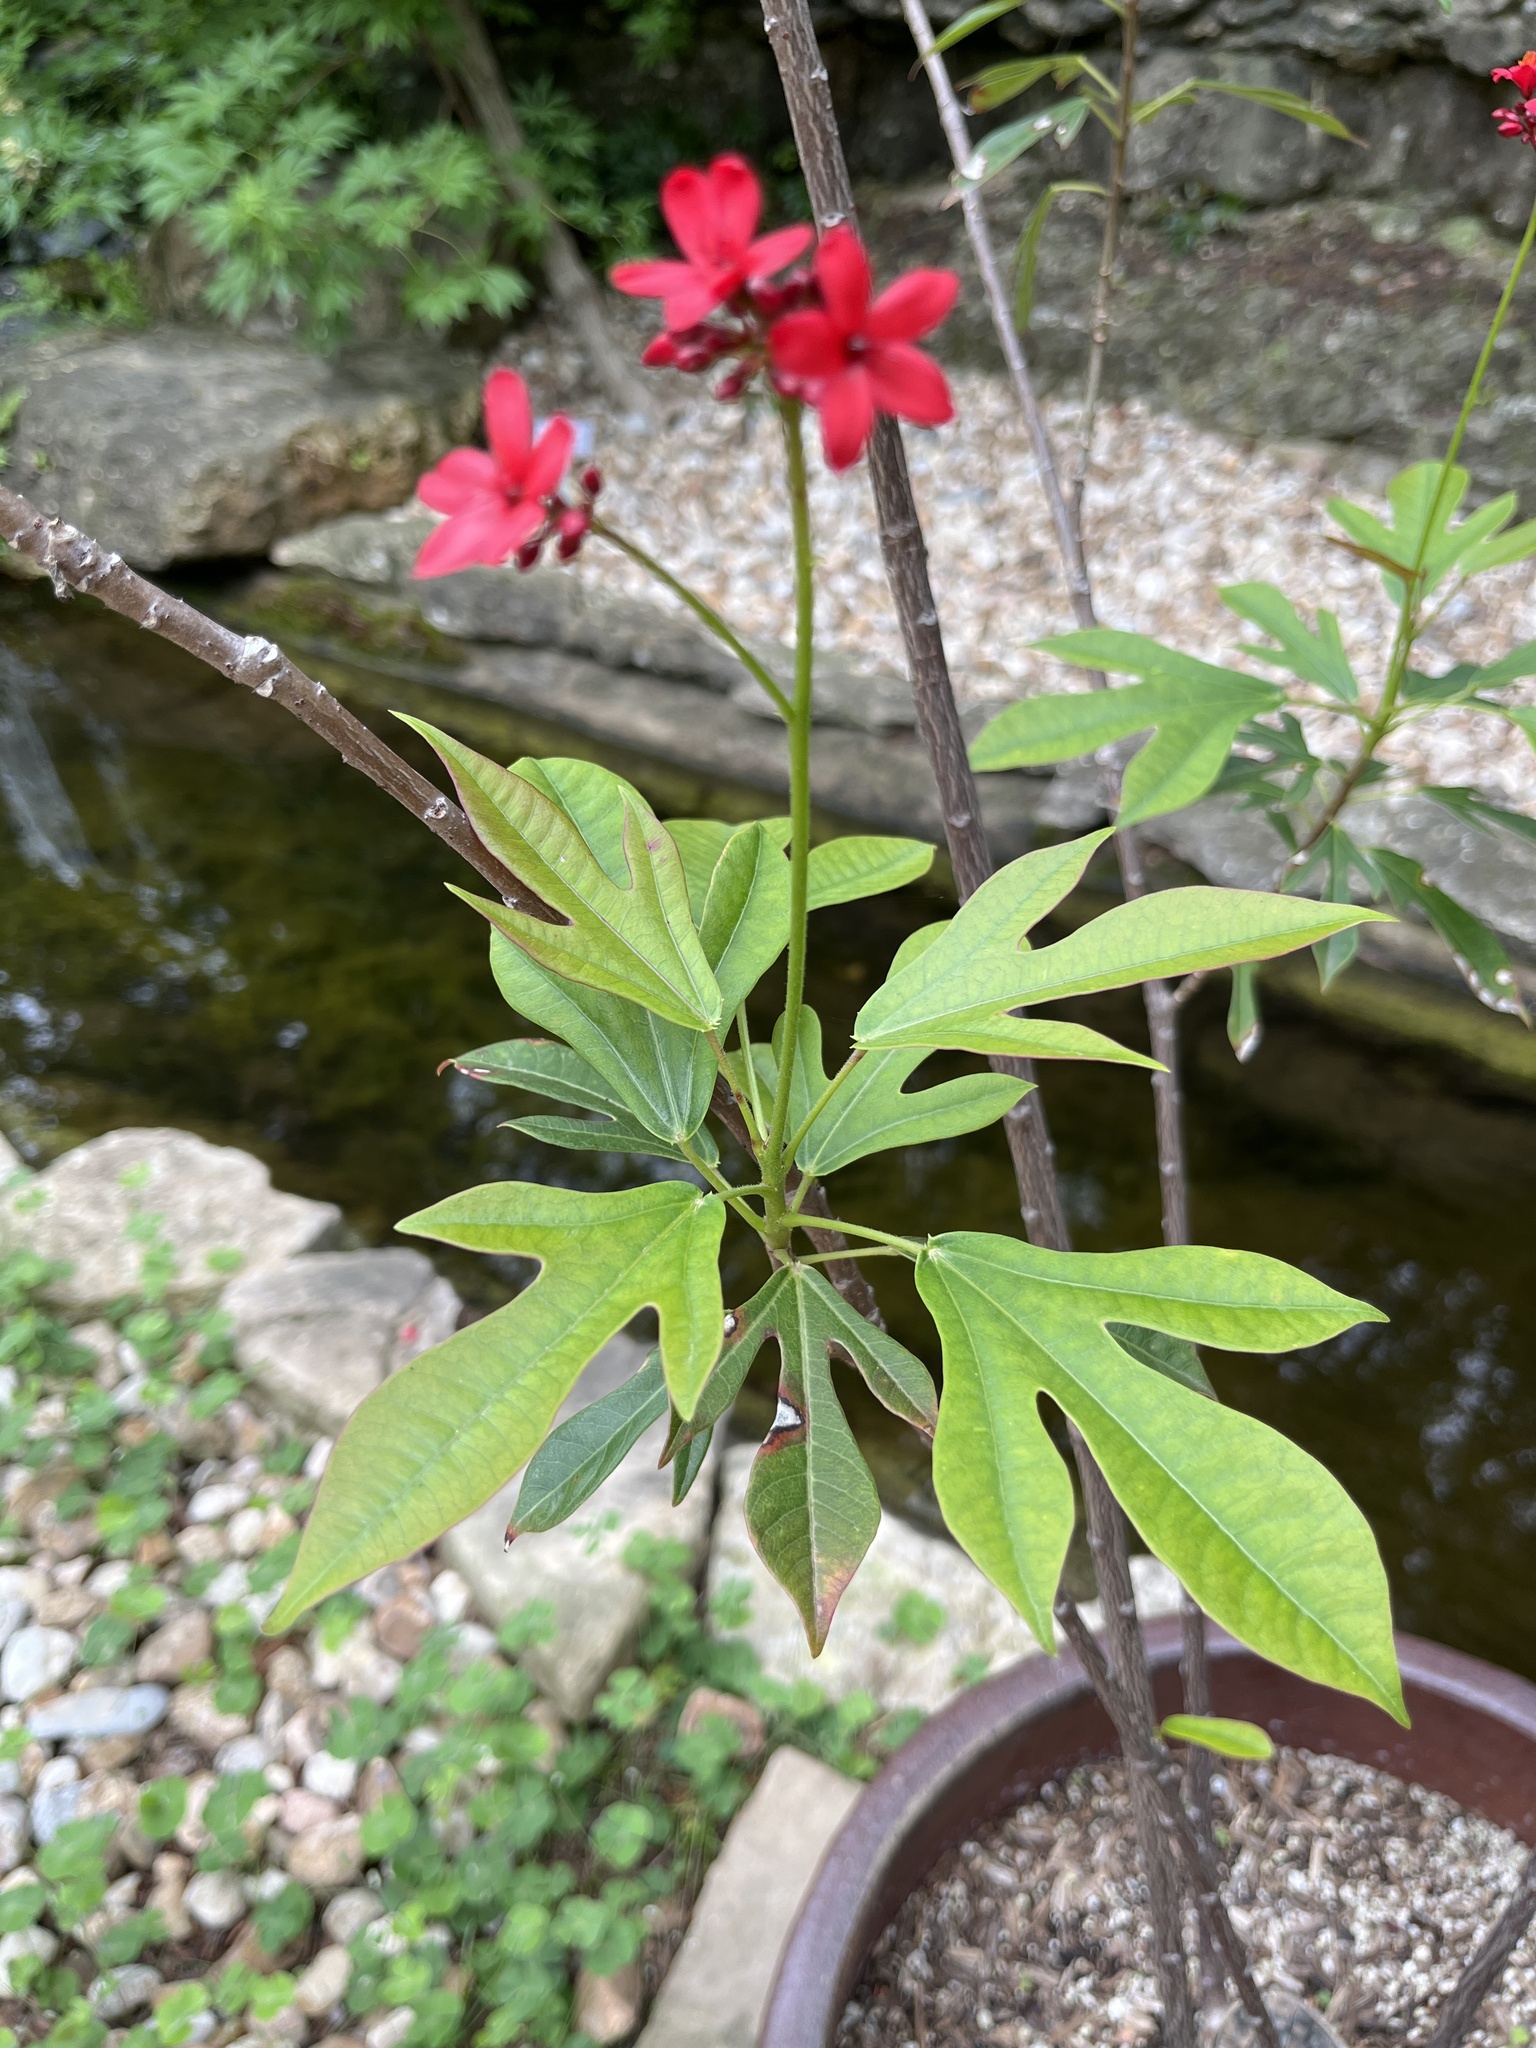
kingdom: Plantae
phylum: Tracheophyta
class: Magnoliopsida
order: Malpighiales
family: Euphorbiaceae
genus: Jatropha
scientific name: Jatropha integerrima
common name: Peregrina
